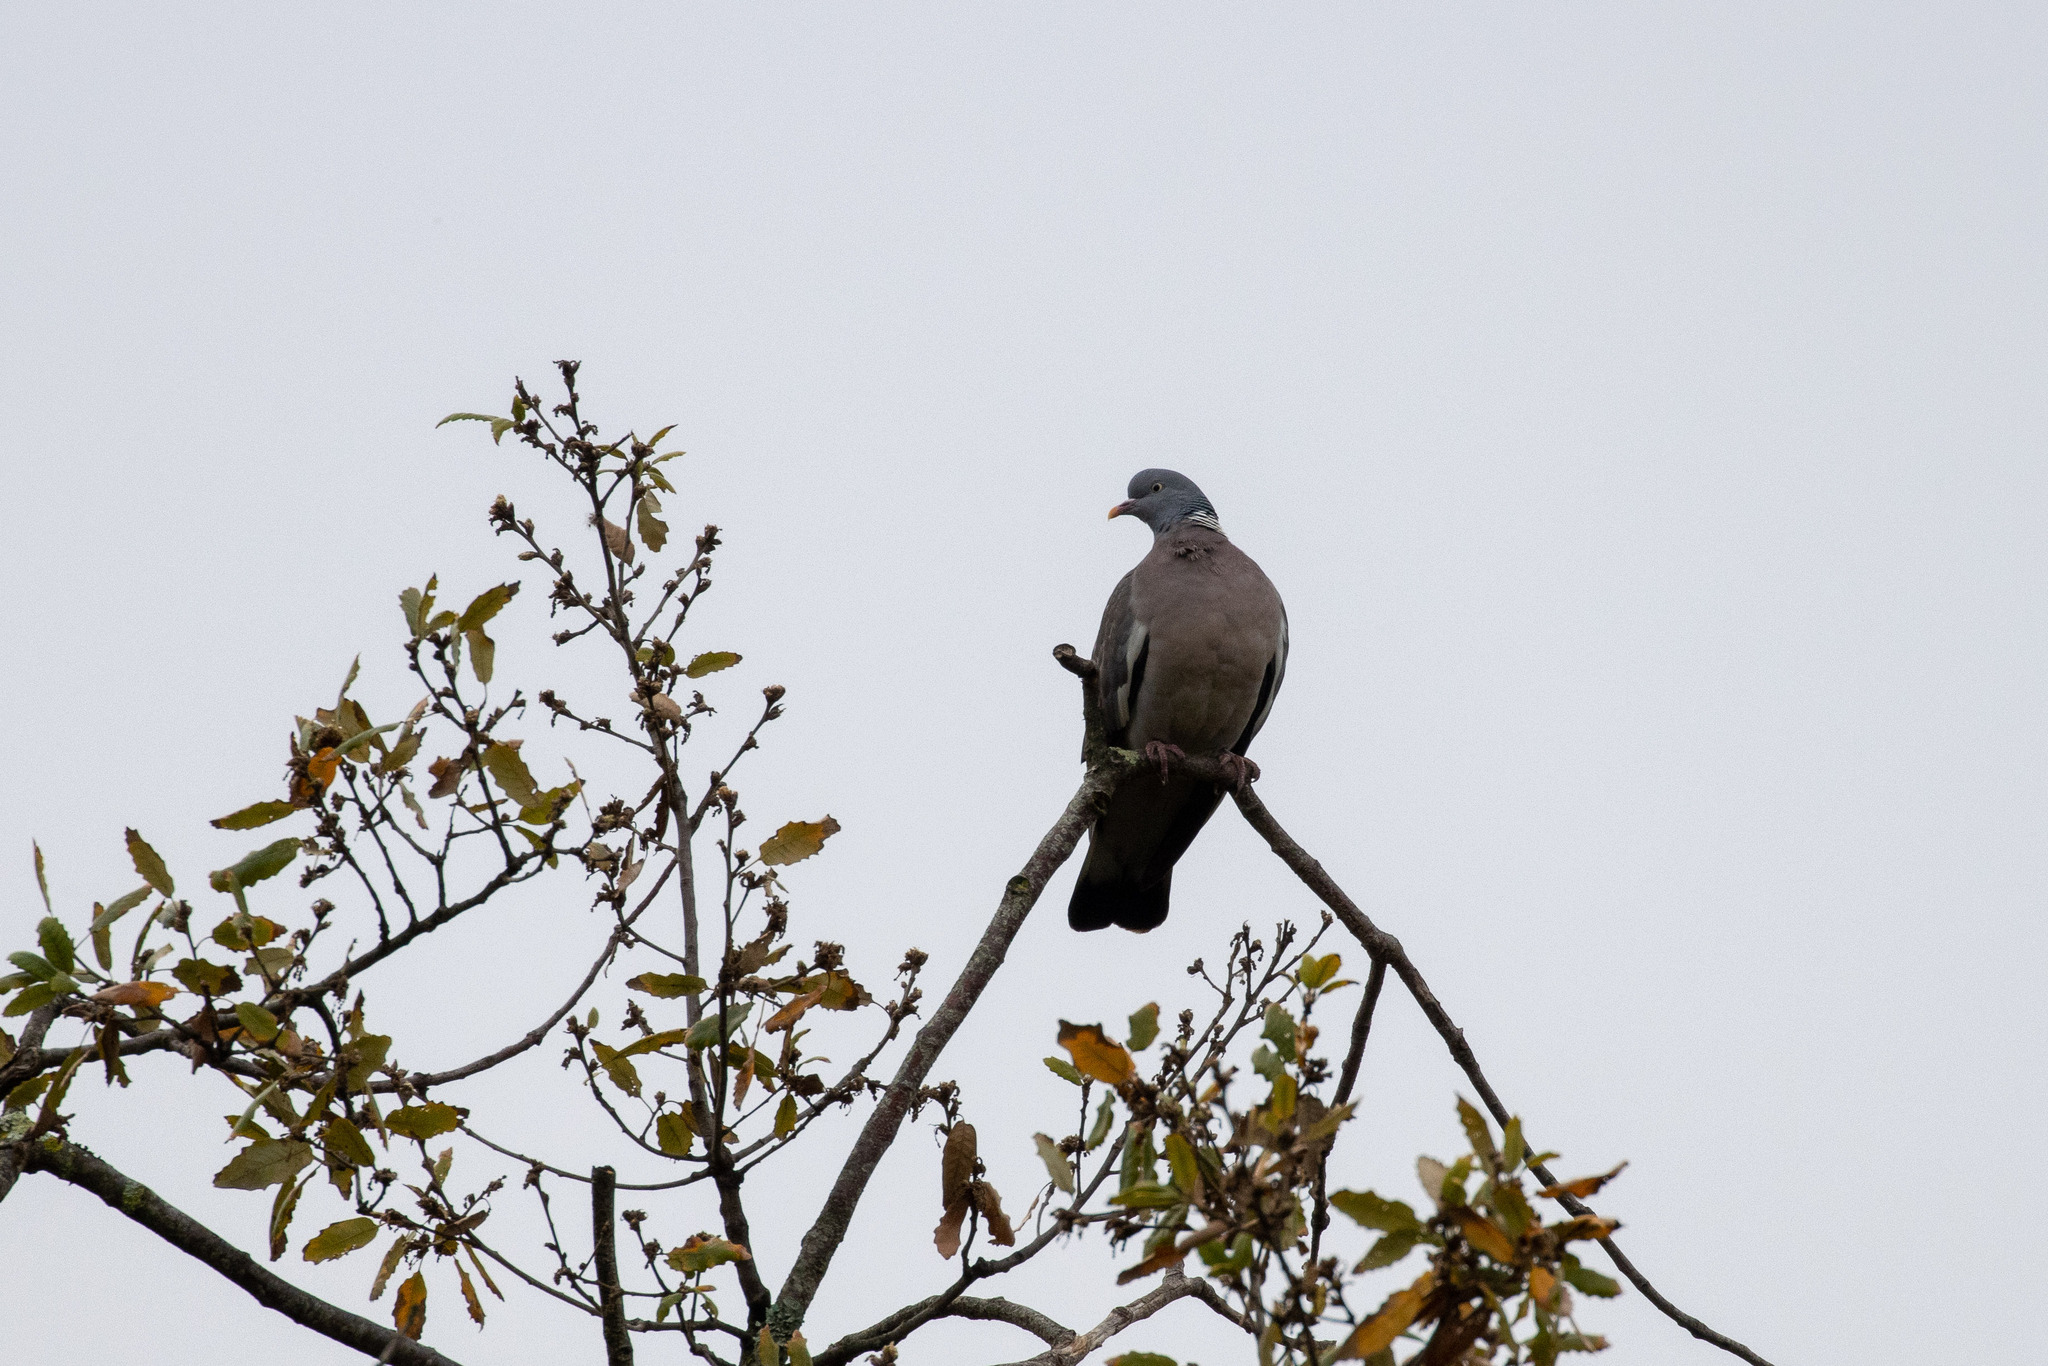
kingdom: Animalia
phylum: Chordata
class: Aves
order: Columbiformes
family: Columbidae
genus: Columba
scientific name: Columba palumbus
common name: Common wood pigeon
